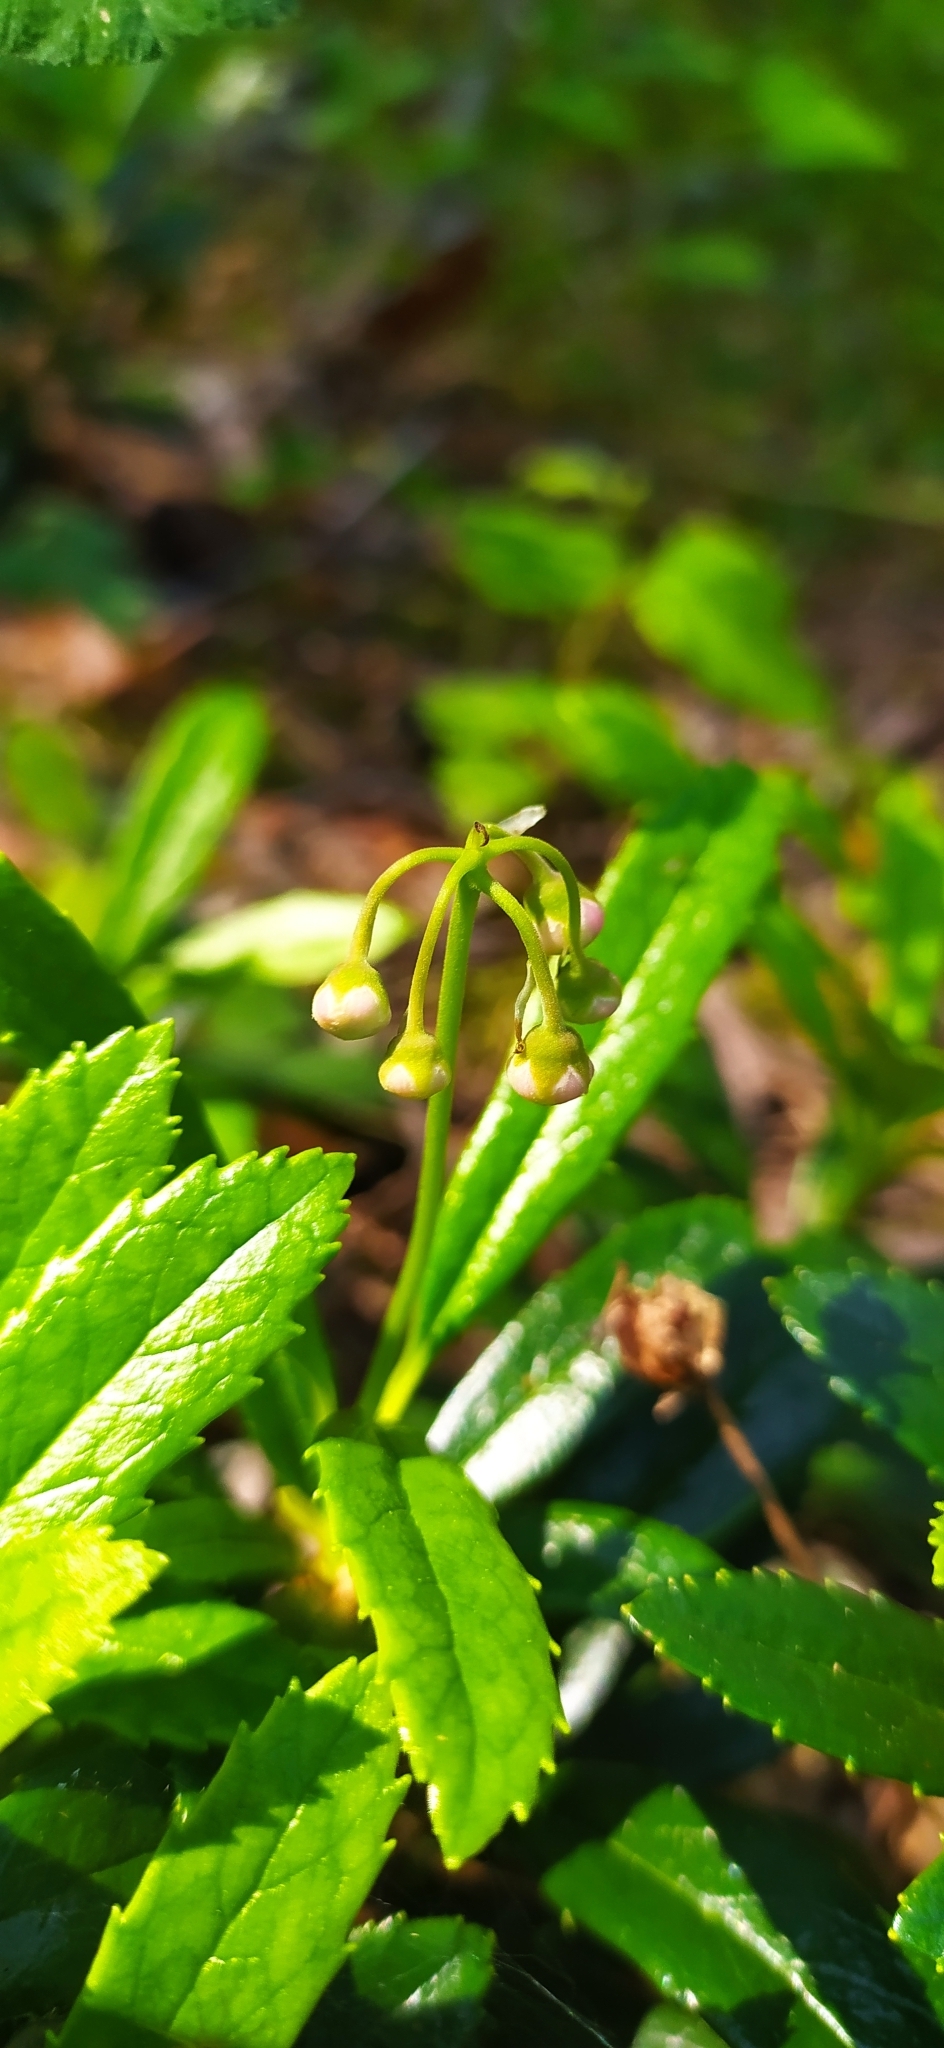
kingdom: Plantae
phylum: Tracheophyta
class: Magnoliopsida
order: Ericales
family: Ericaceae
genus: Chimaphila
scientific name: Chimaphila umbellata
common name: Pipsissewa
